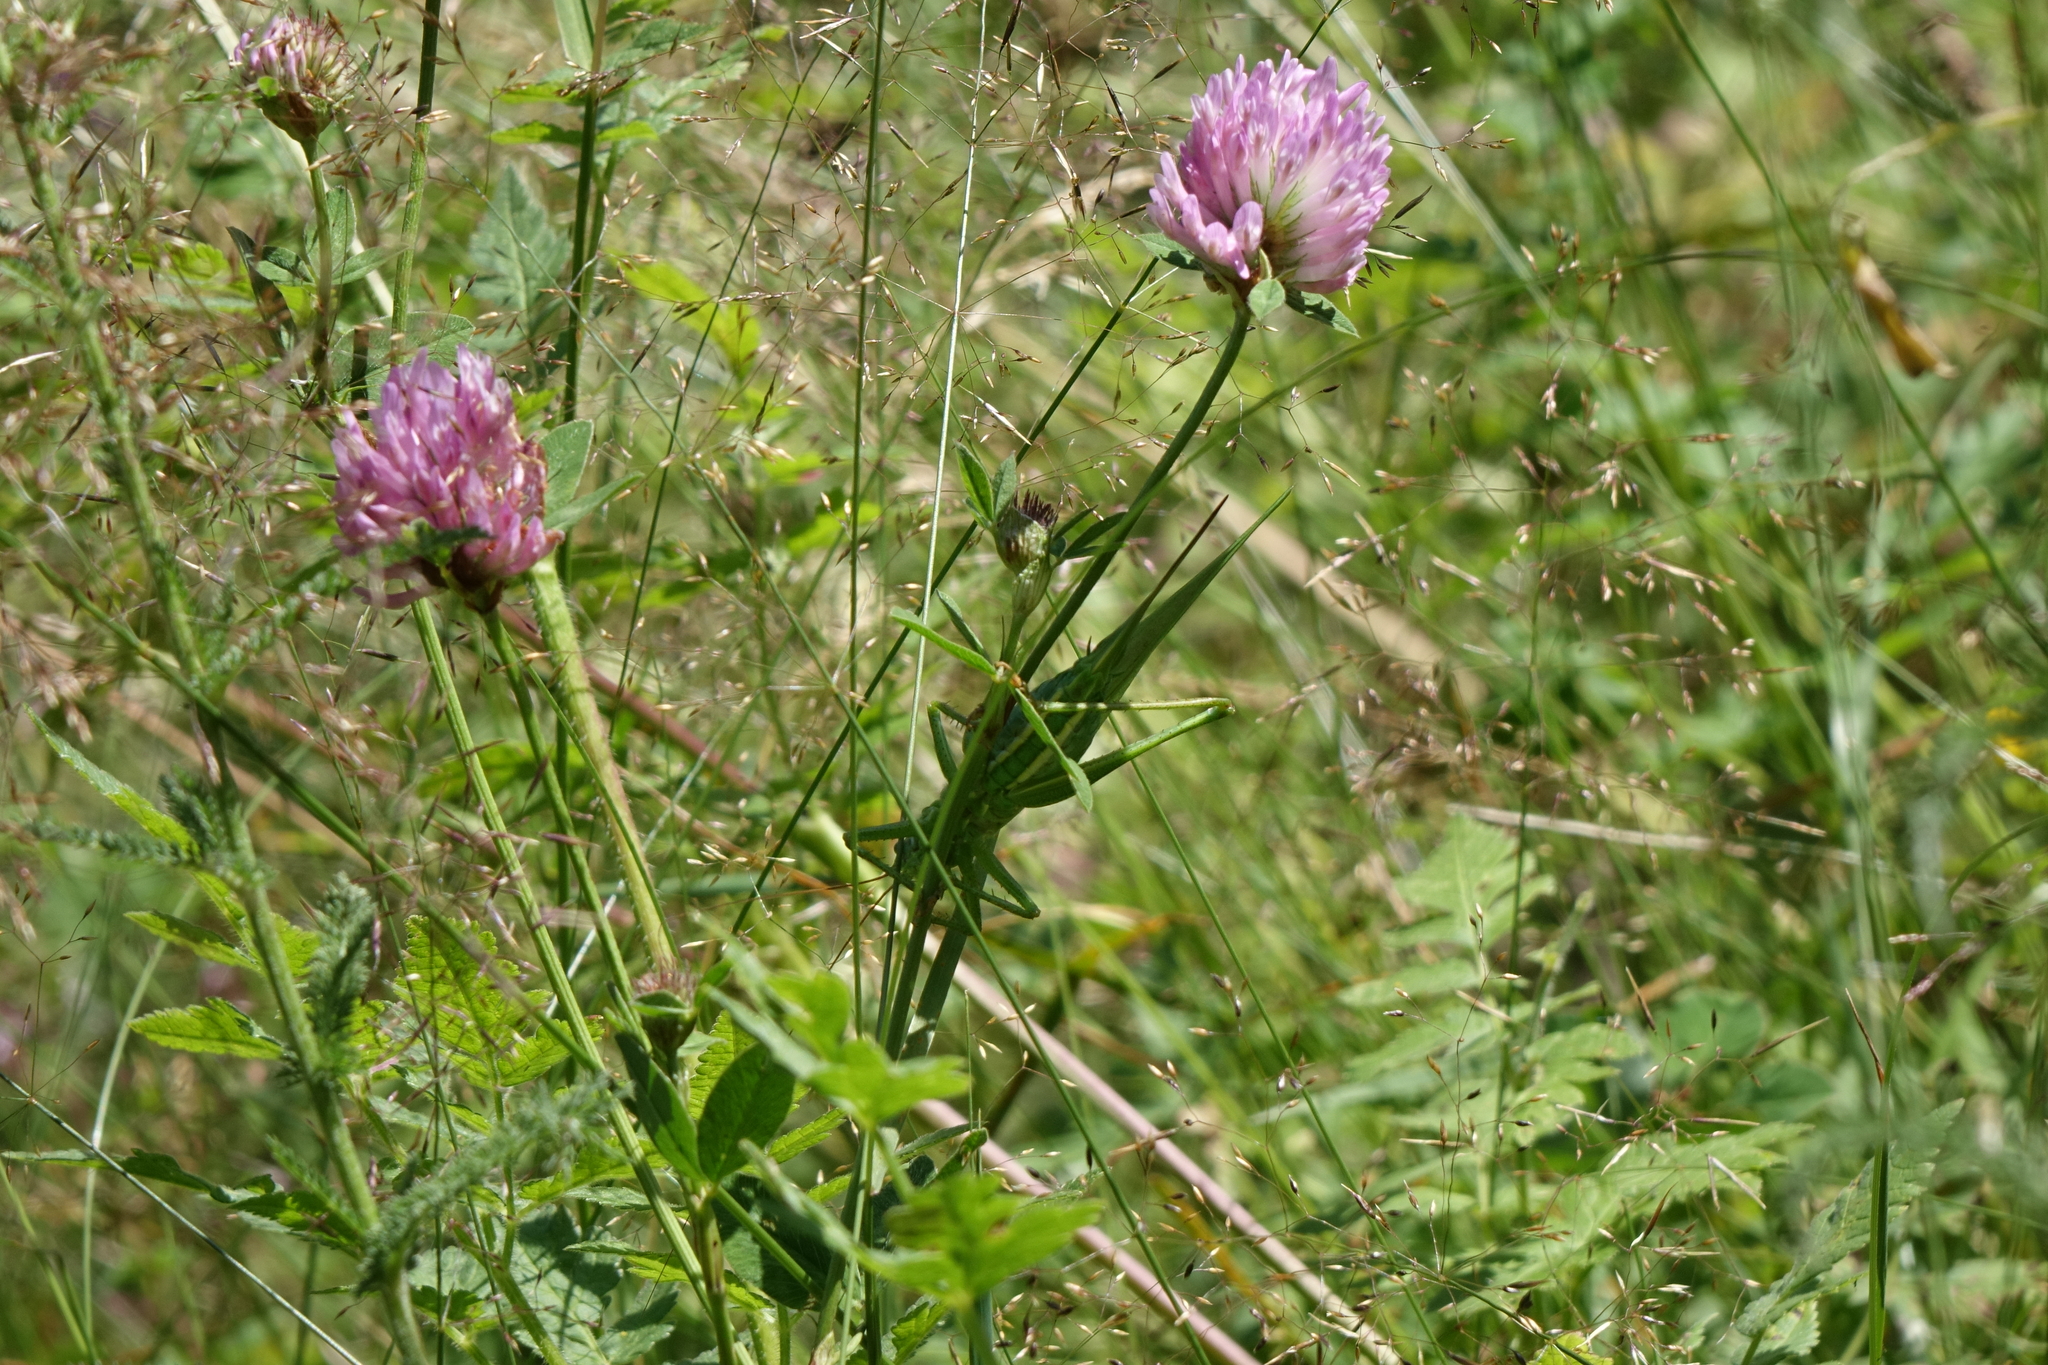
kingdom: Animalia
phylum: Arthropoda
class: Insecta
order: Orthoptera
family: Tettigoniidae
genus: Tettigonia
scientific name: Tettigonia viridissima
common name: Great green bush-cricket
